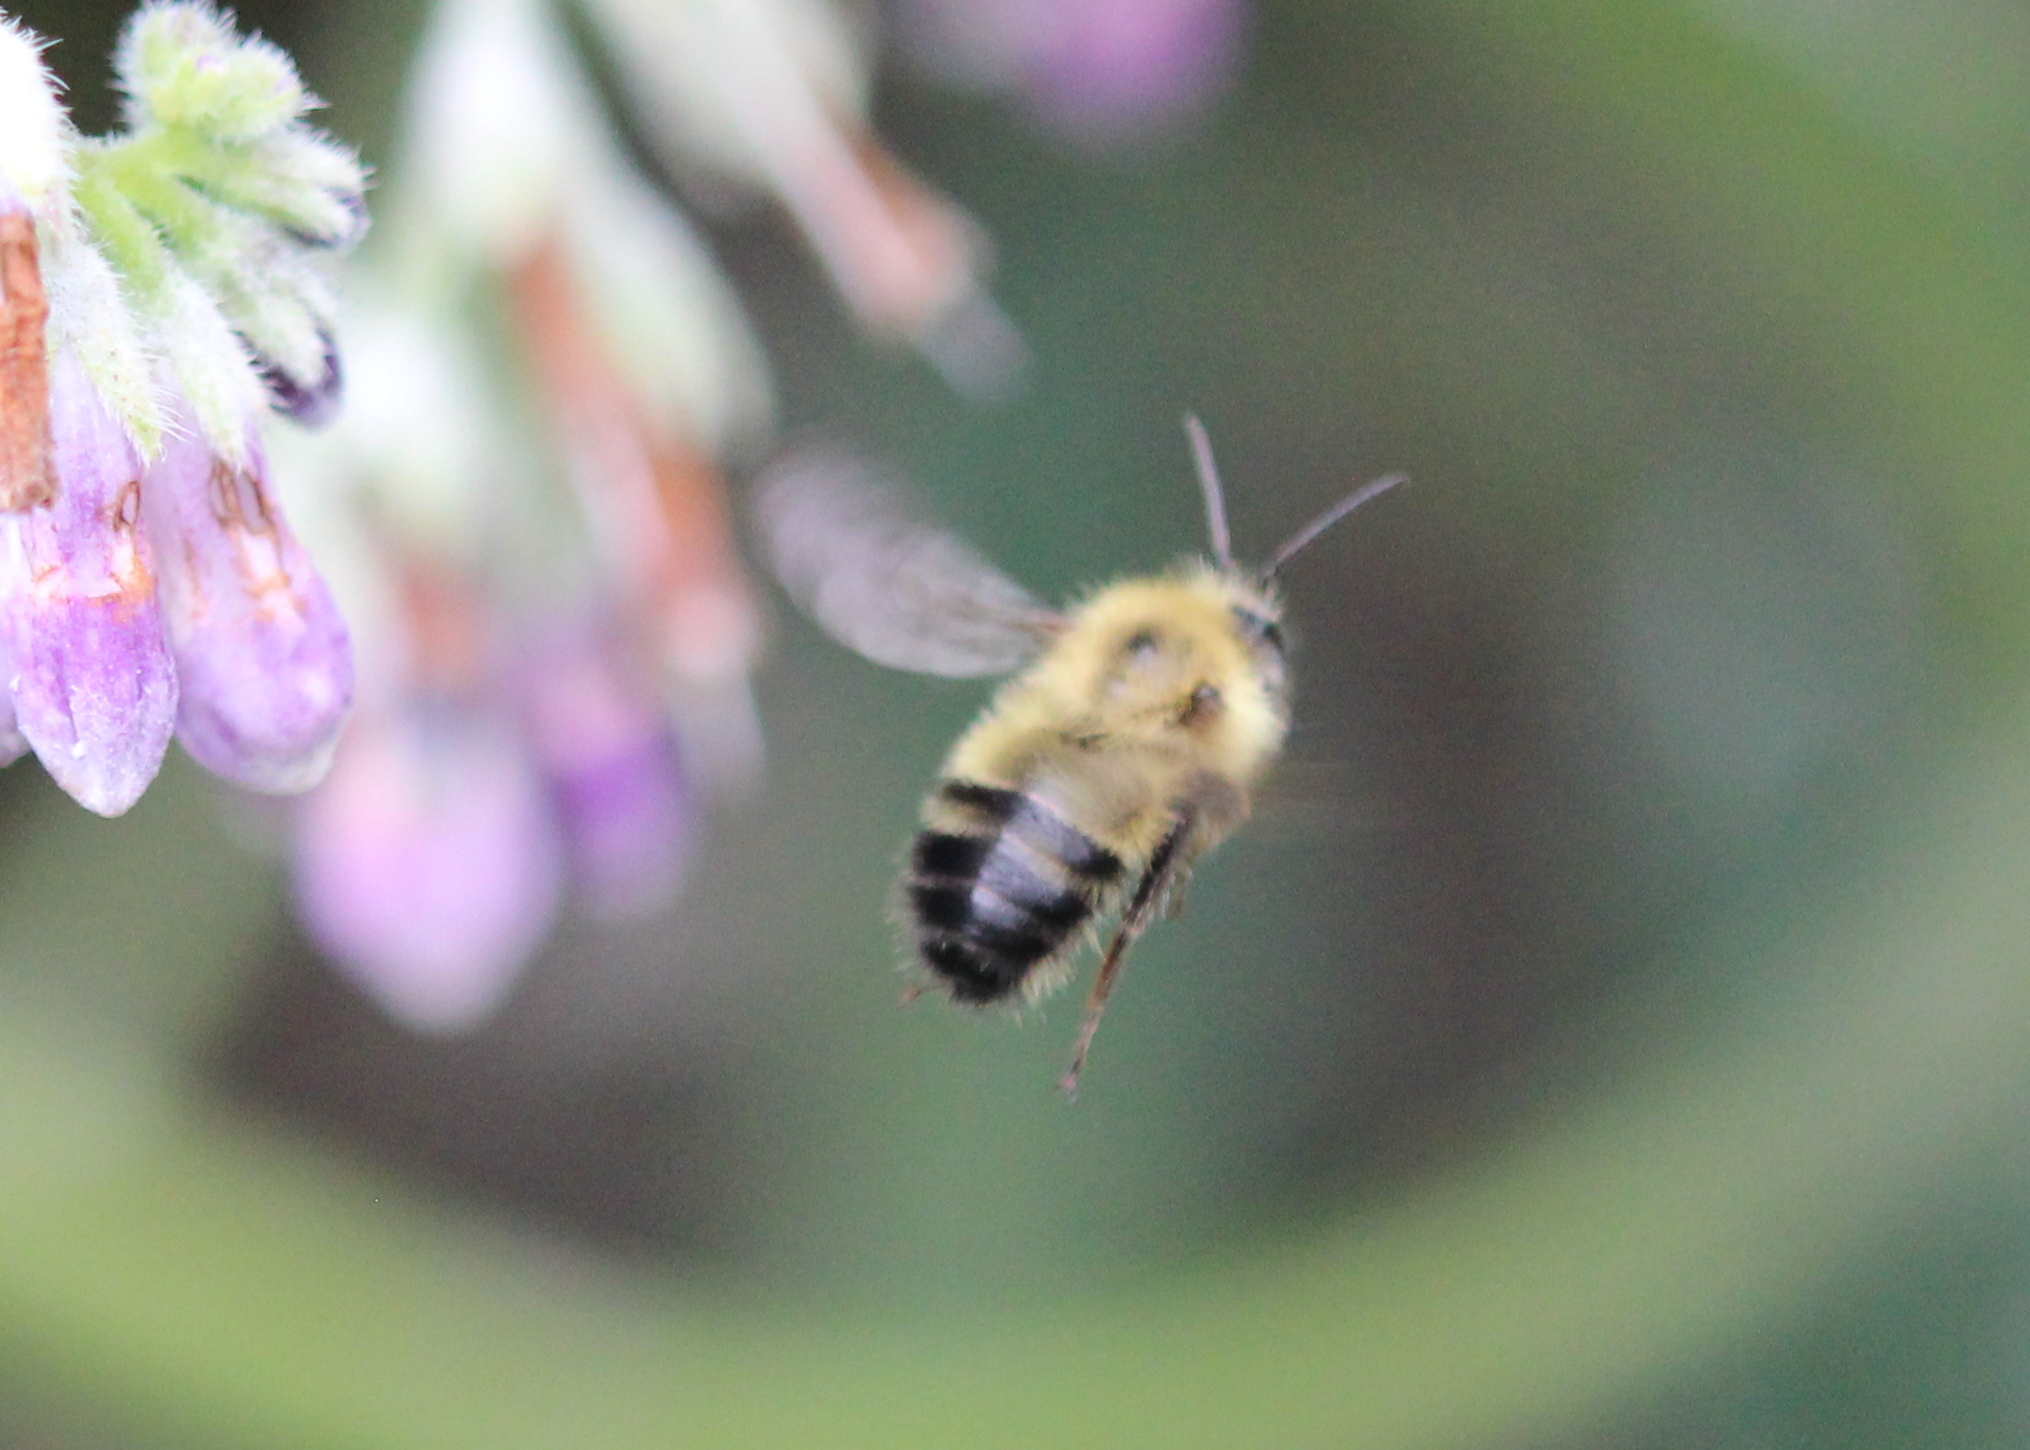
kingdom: Animalia
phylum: Arthropoda
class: Insecta
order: Hymenoptera
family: Apidae
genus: Bombus
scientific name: Bombus perplexus
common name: Confusing bumble bee
